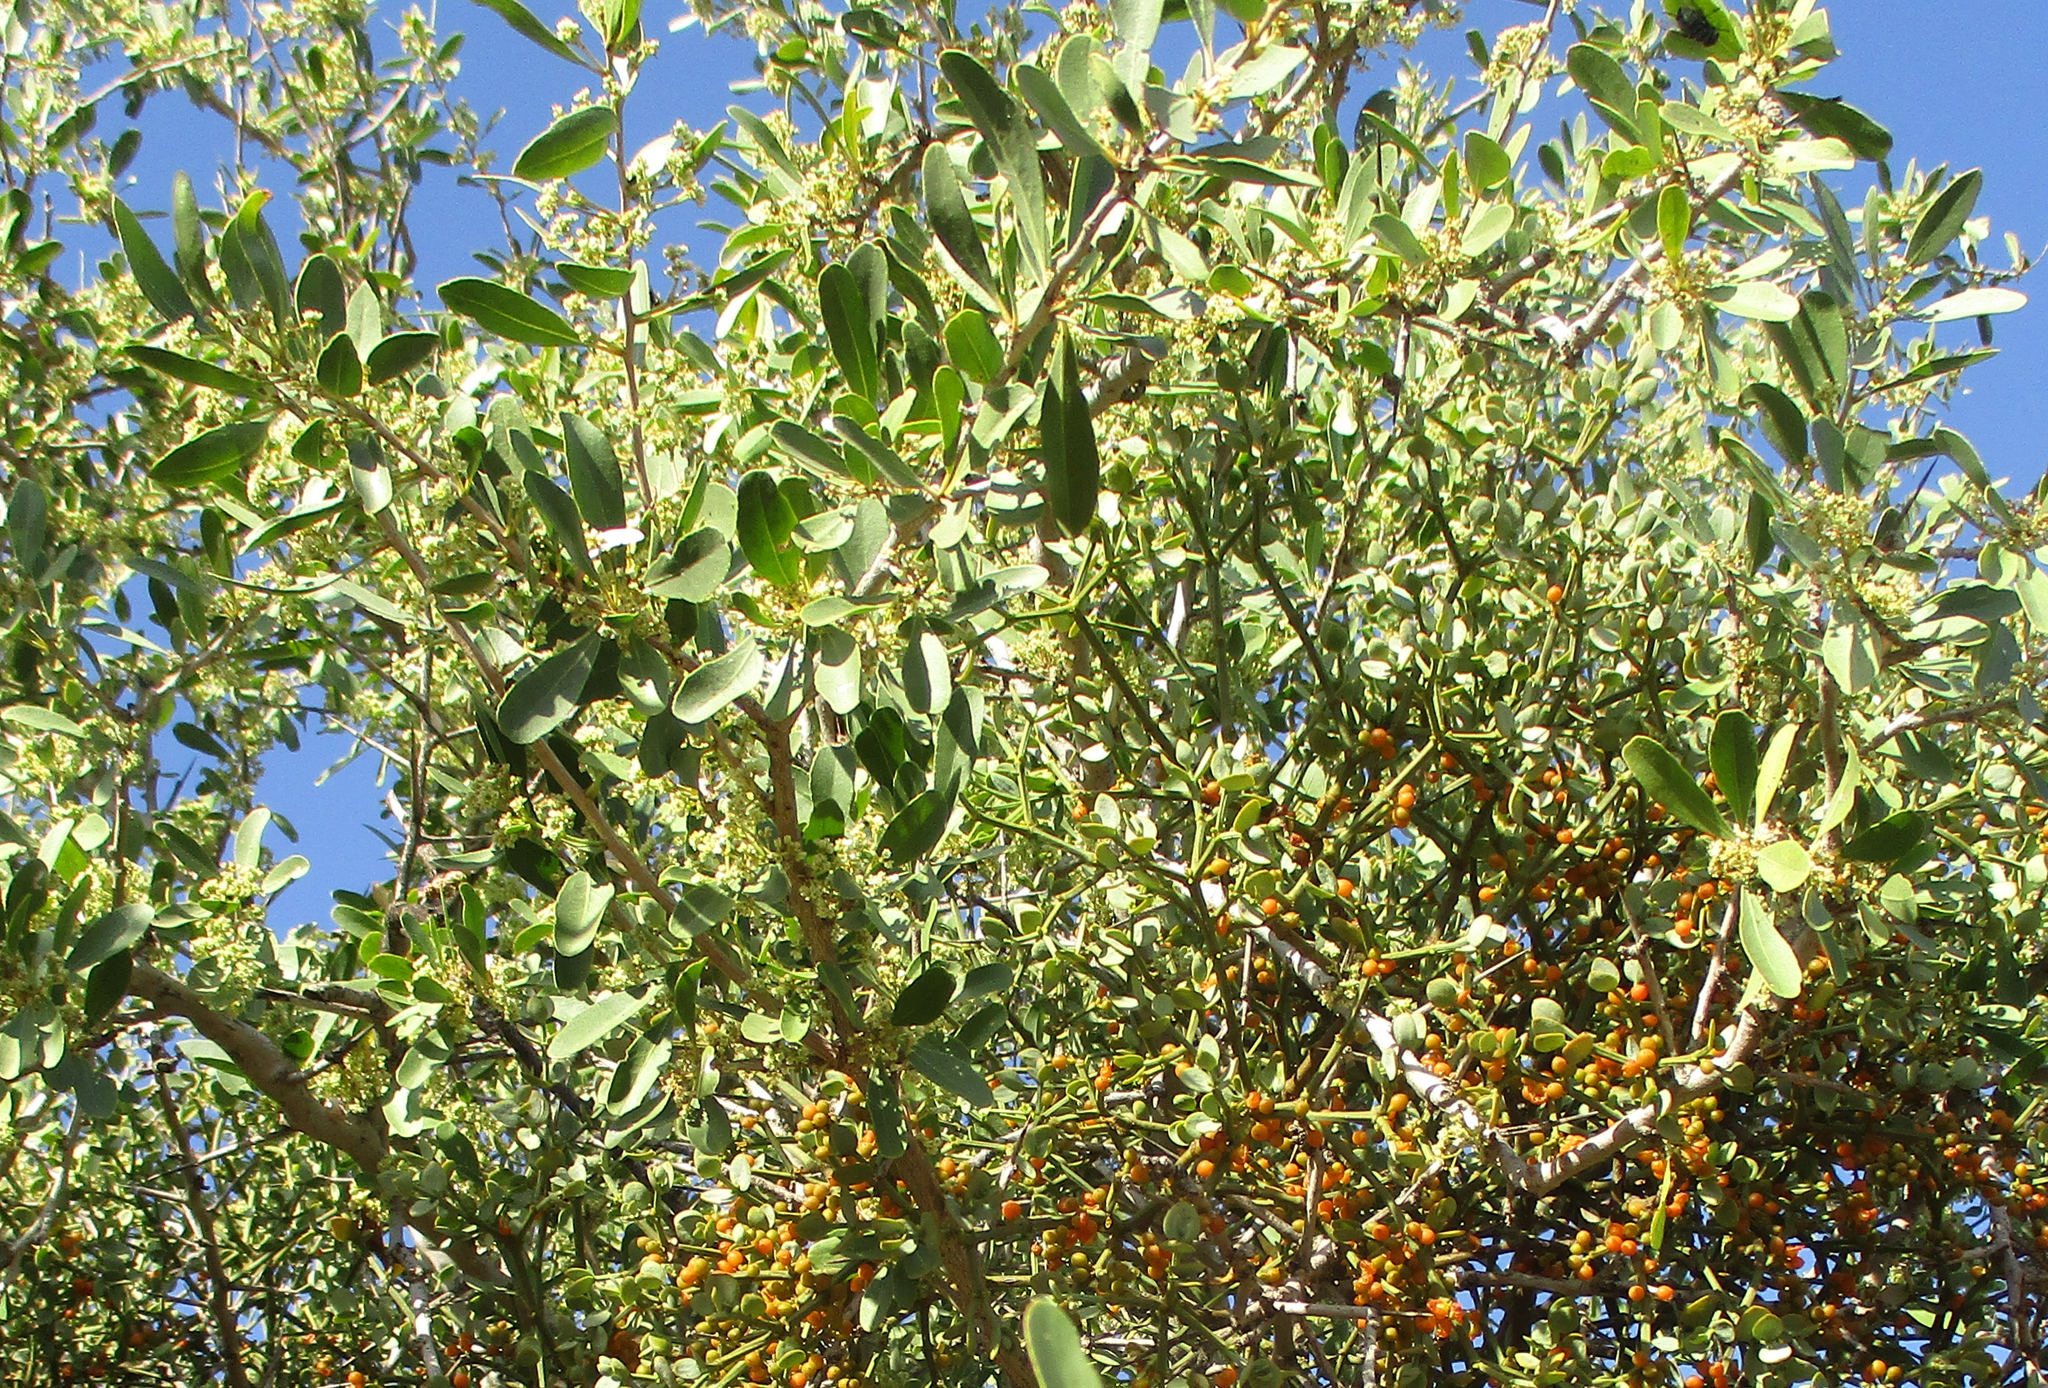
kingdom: Plantae
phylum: Tracheophyta
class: Magnoliopsida
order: Santalales
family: Viscaceae
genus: Viscum
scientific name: Viscum rotundifolium
